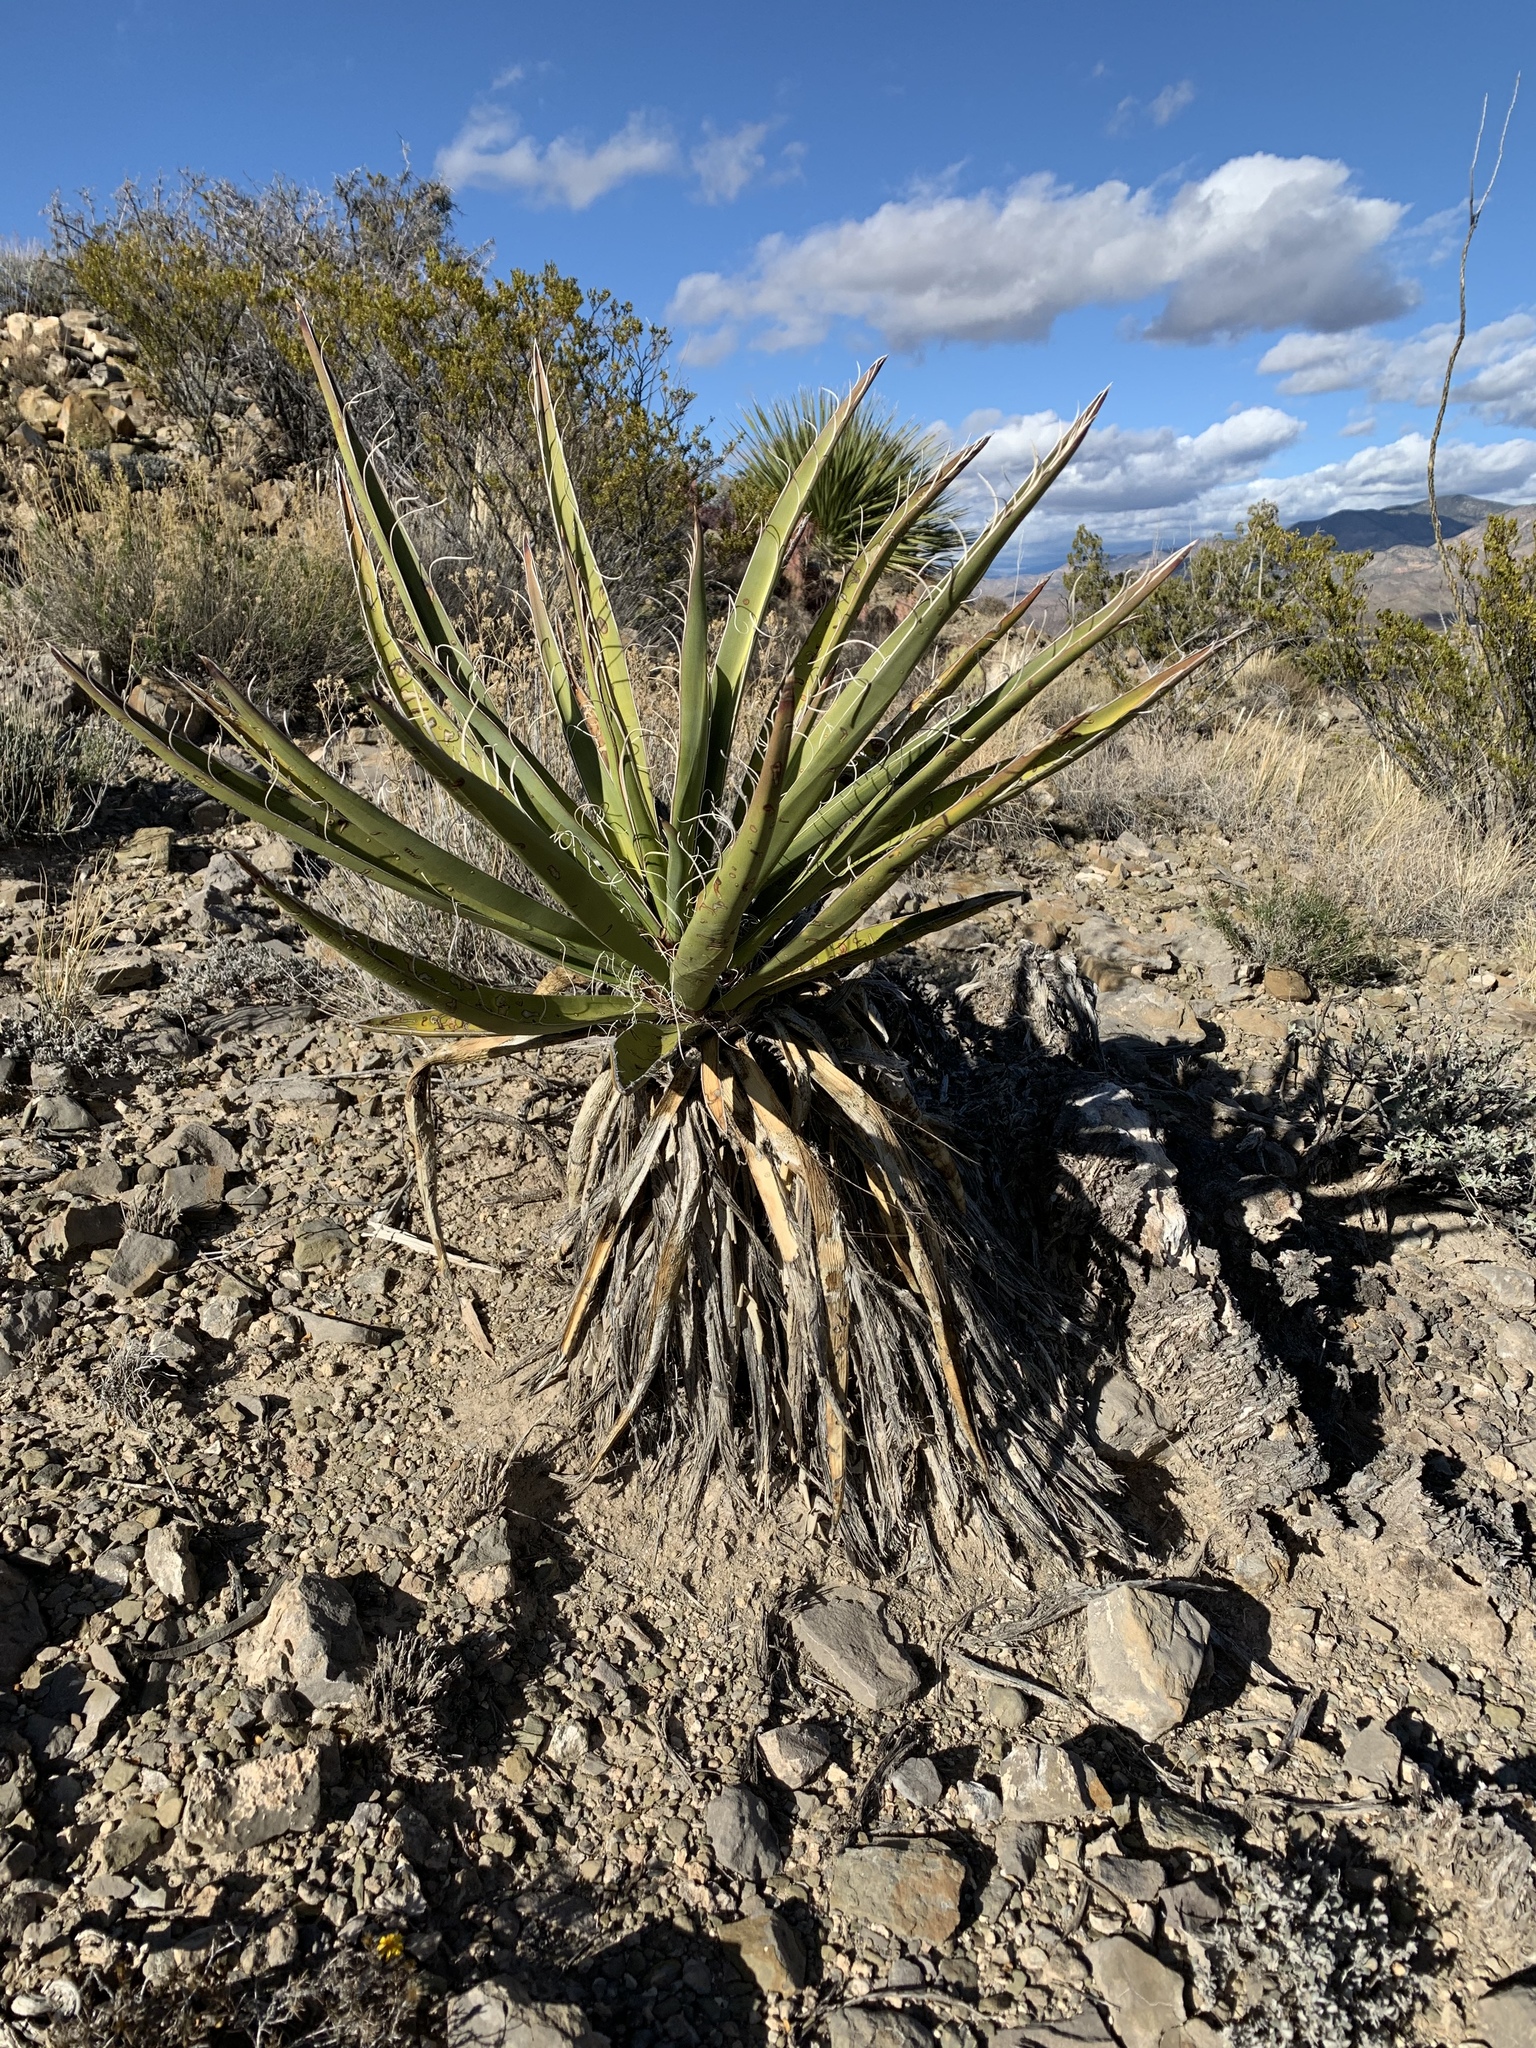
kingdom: Plantae
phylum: Tracheophyta
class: Liliopsida
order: Asparagales
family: Asparagaceae
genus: Yucca
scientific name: Yucca baccata
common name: Banana yucca
